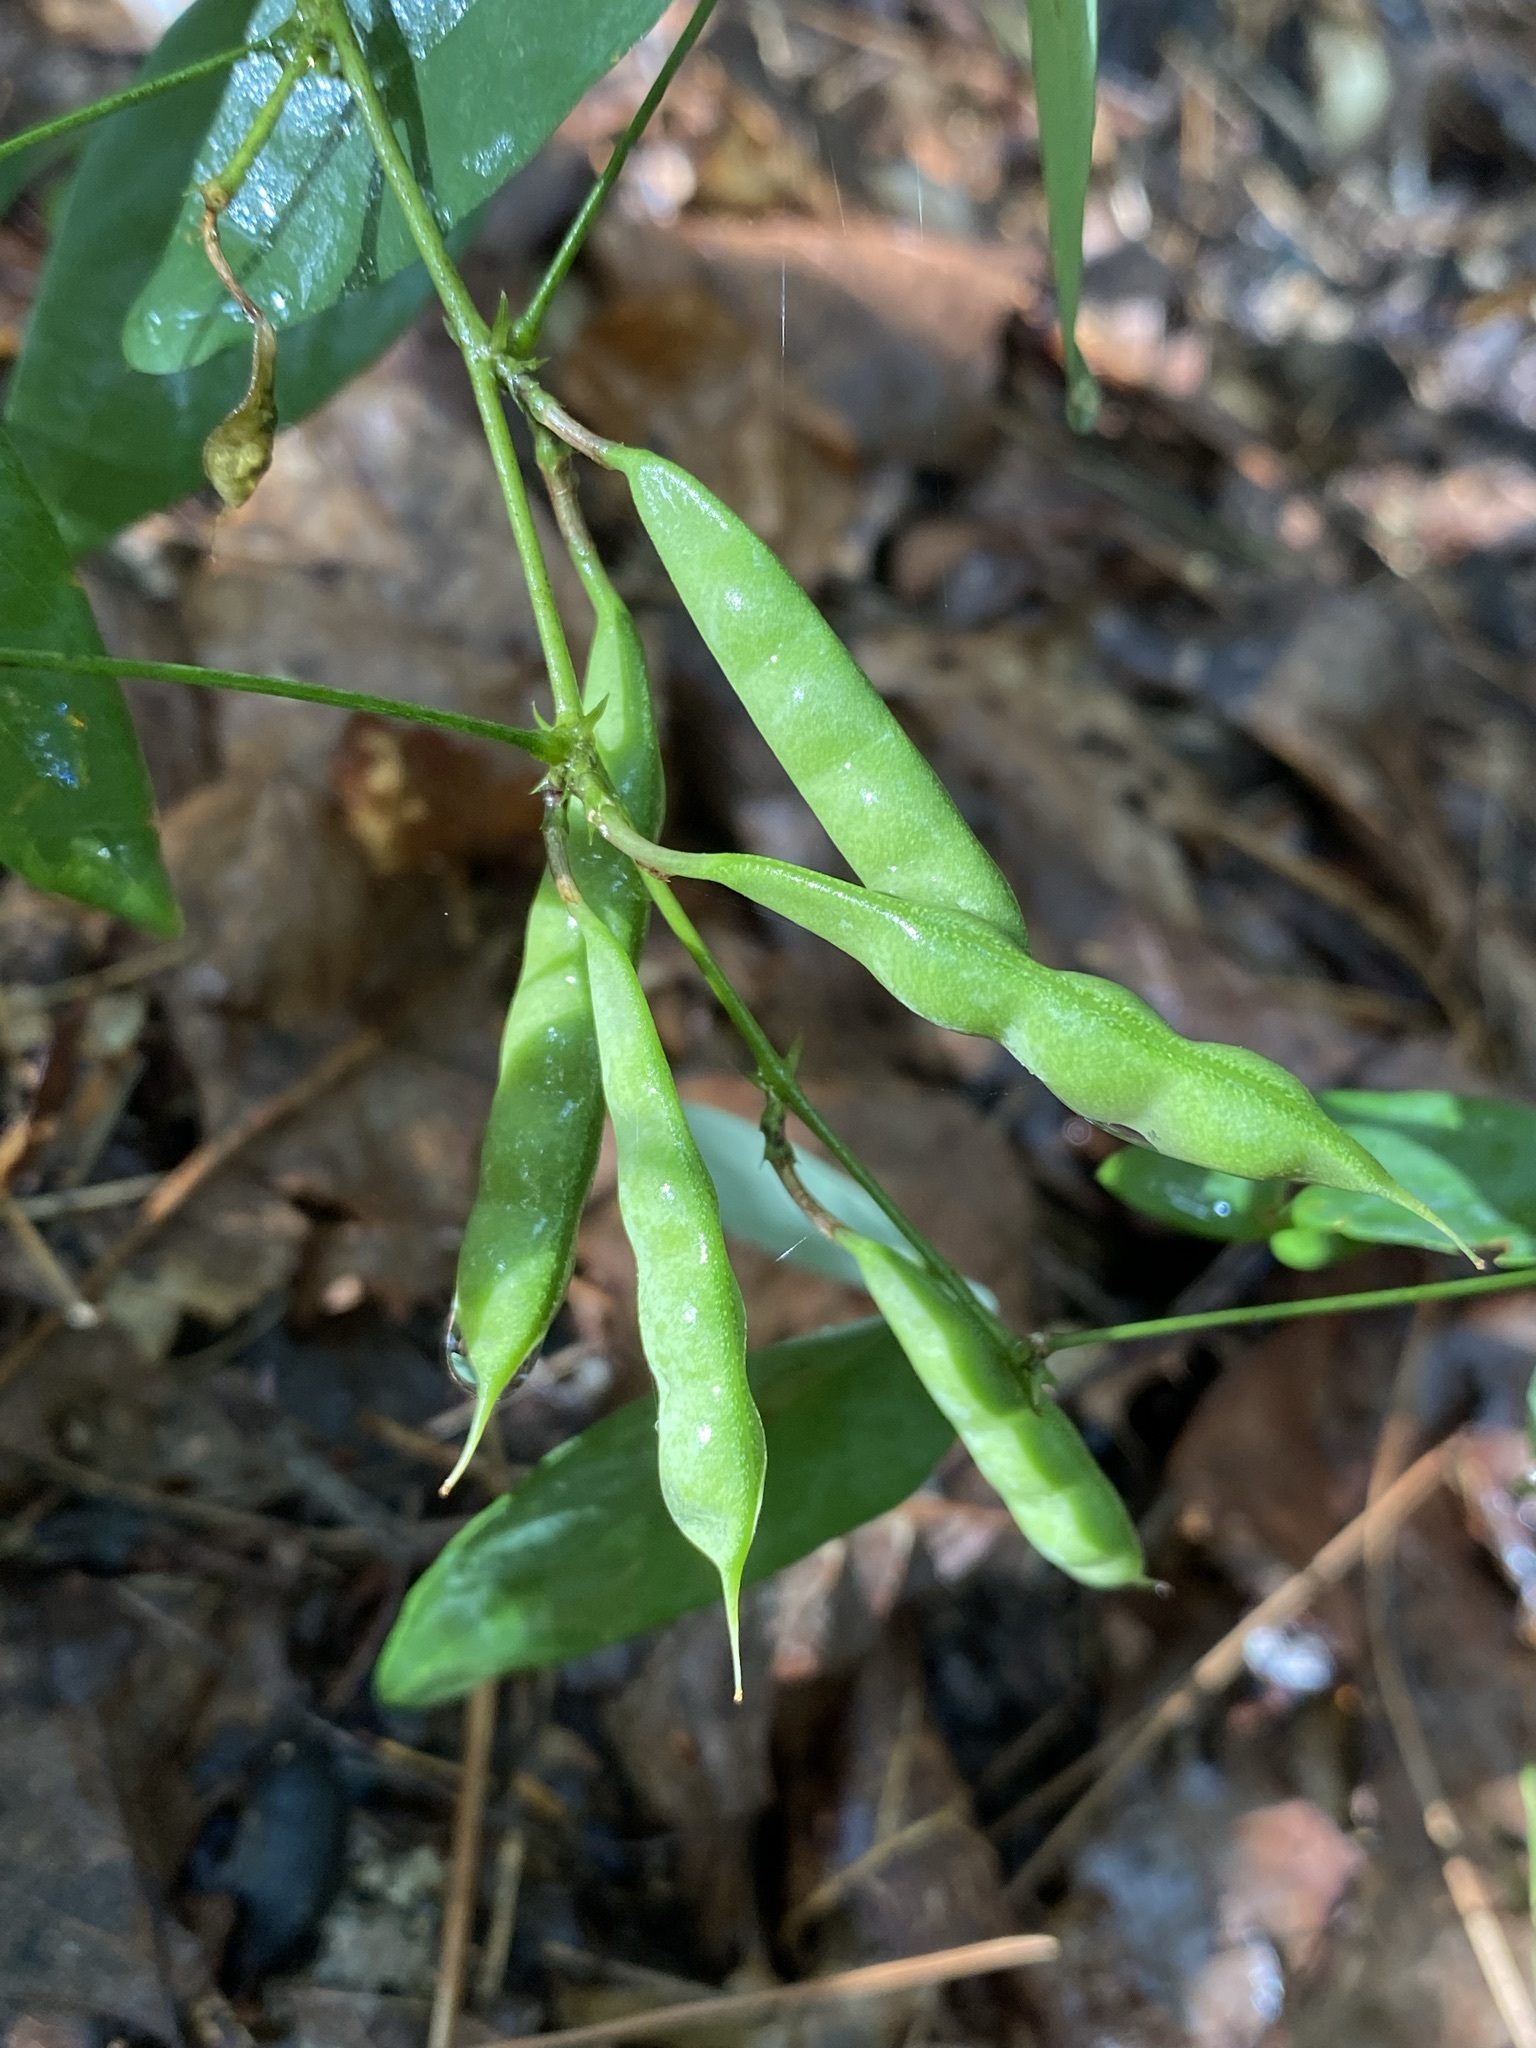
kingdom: Plantae
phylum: Tracheophyta
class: Magnoliopsida
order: Fabales
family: Fabaceae
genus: Clitoria
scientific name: Clitoria mariana
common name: Butterfly-pea
